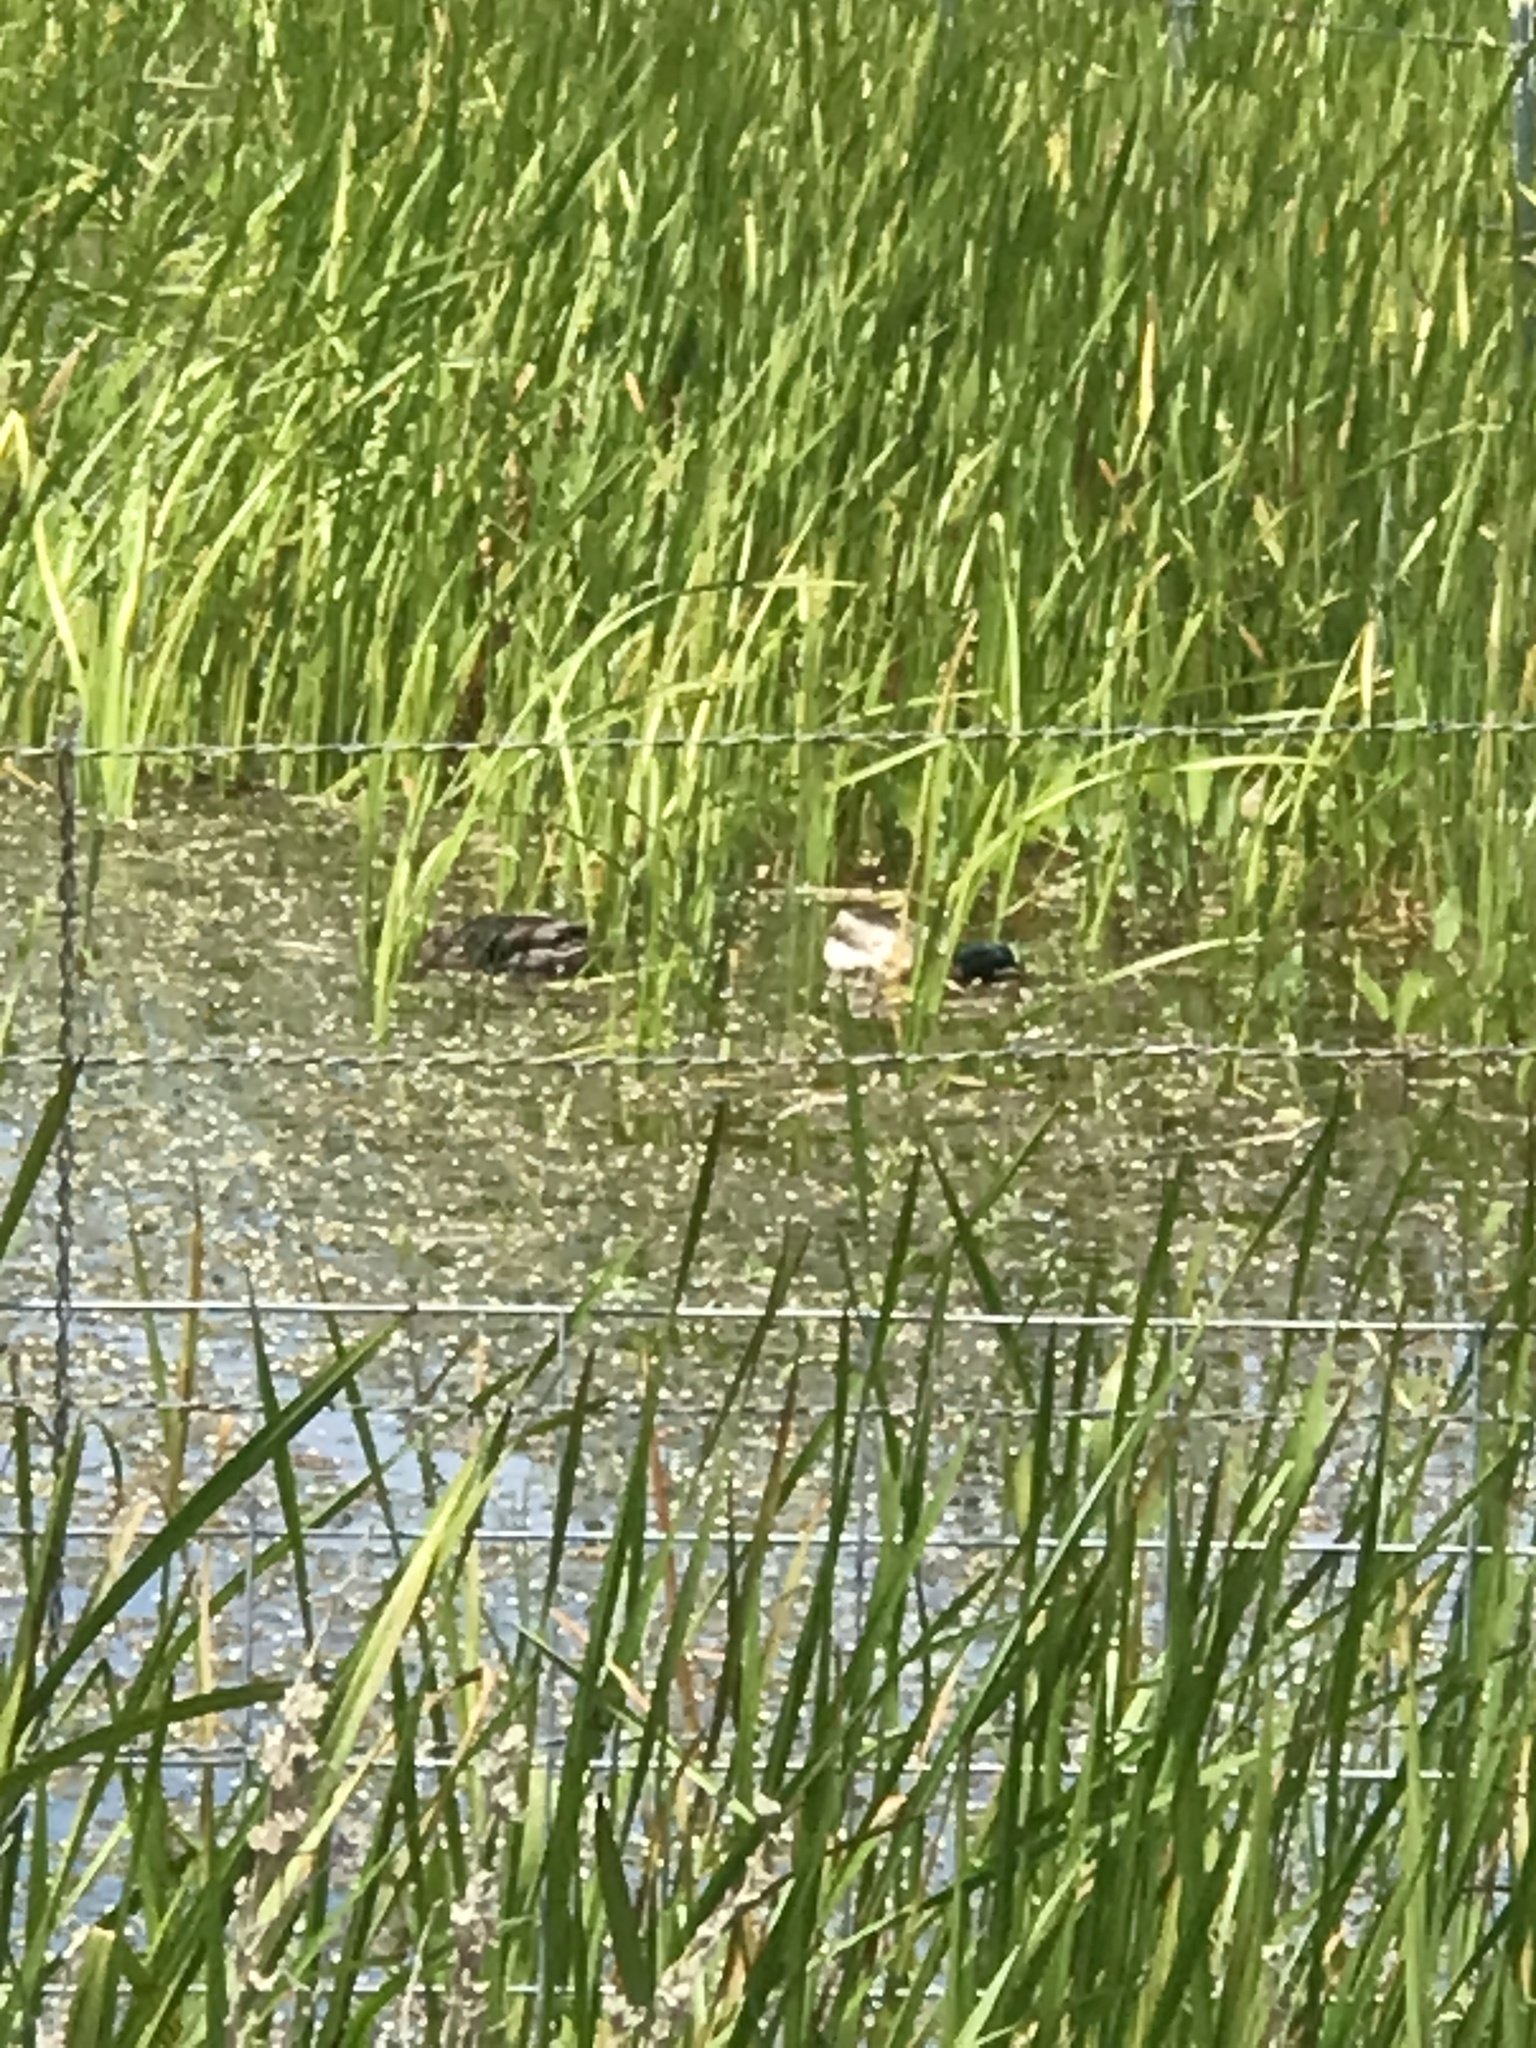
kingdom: Animalia
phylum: Chordata
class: Aves
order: Anseriformes
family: Anatidae
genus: Anas
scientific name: Anas platyrhynchos
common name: Mallard
